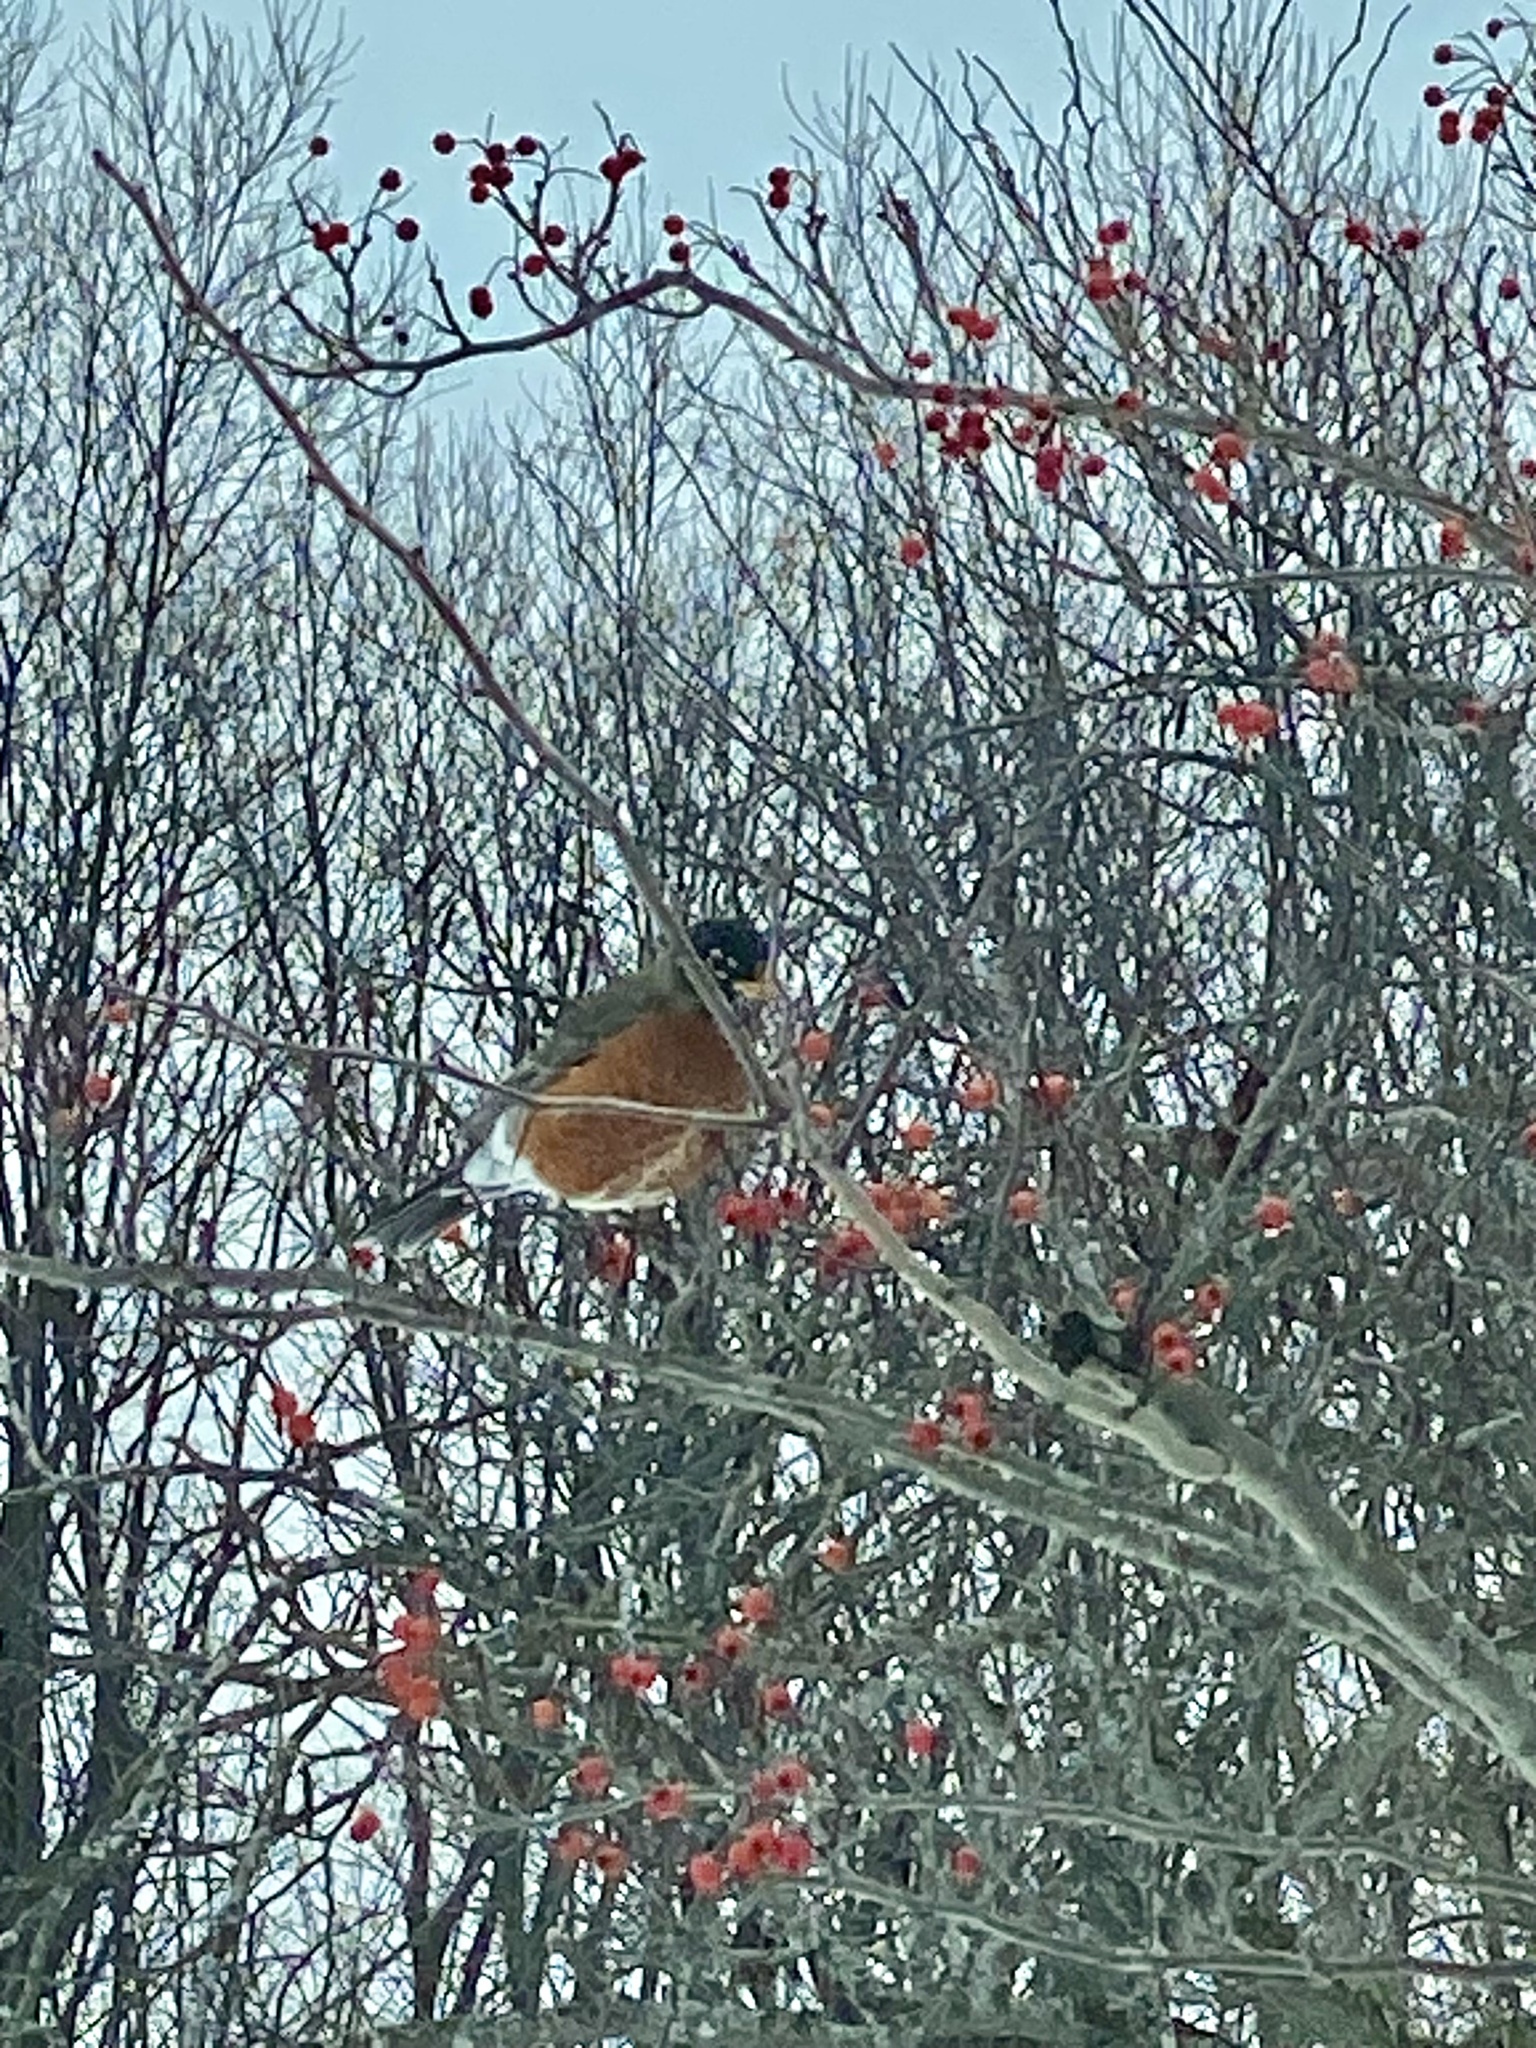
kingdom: Animalia
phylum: Chordata
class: Aves
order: Passeriformes
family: Turdidae
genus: Turdus
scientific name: Turdus migratorius
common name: American robin
